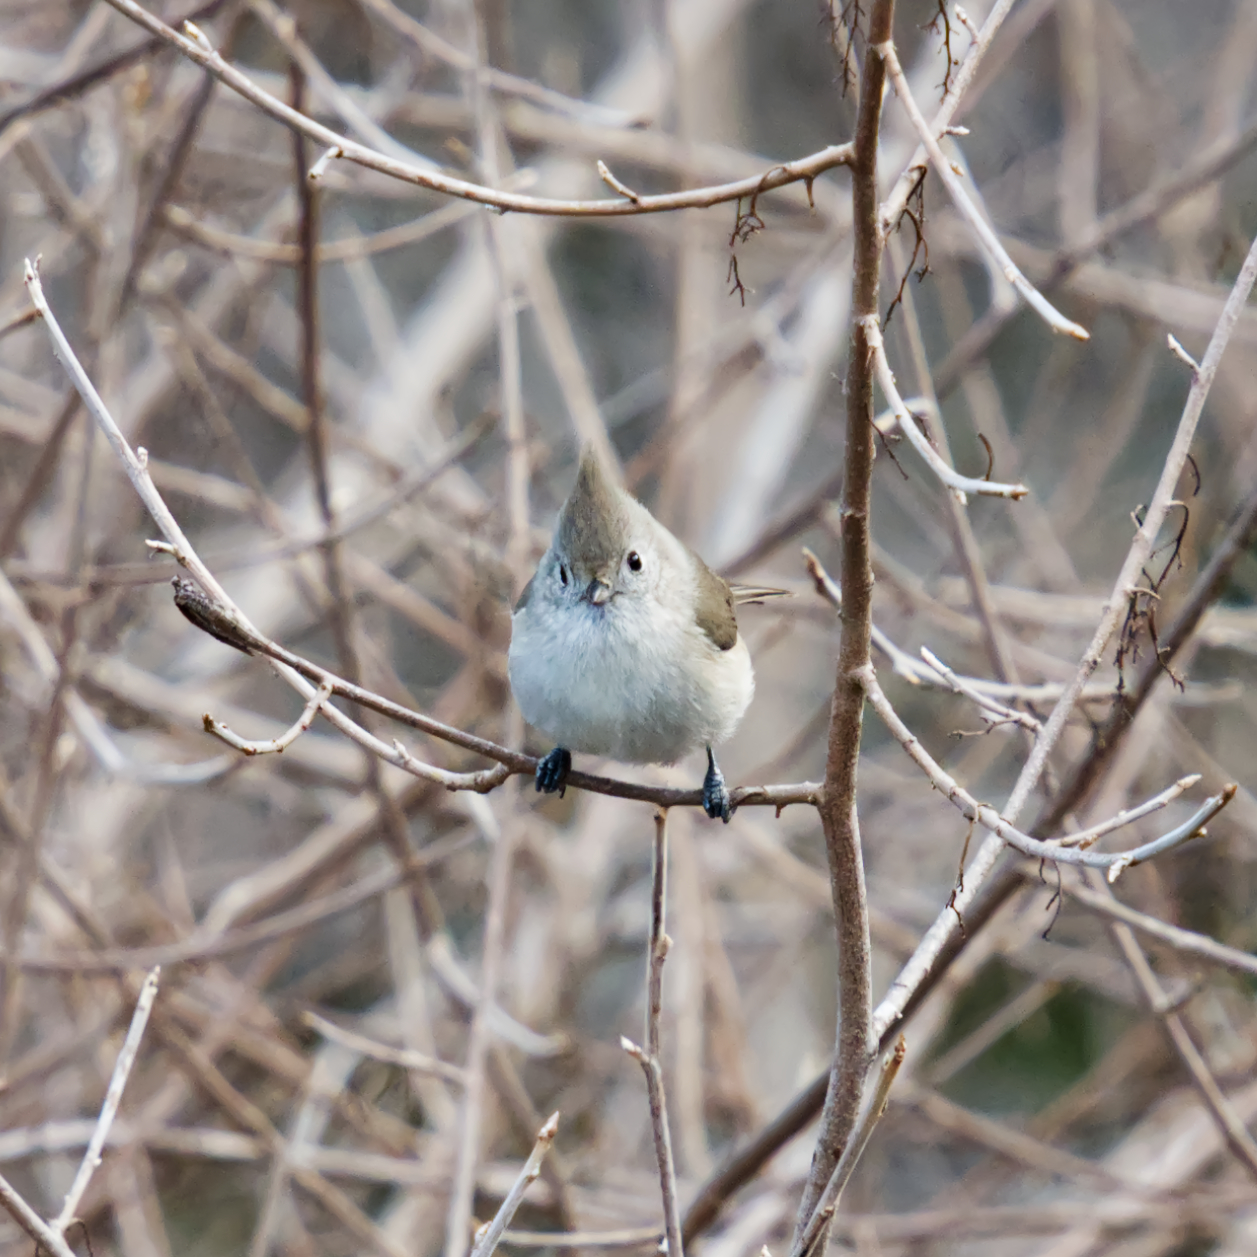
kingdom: Animalia
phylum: Chordata
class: Aves
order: Passeriformes
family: Paridae
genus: Baeolophus
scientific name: Baeolophus inornatus
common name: Oak titmouse
